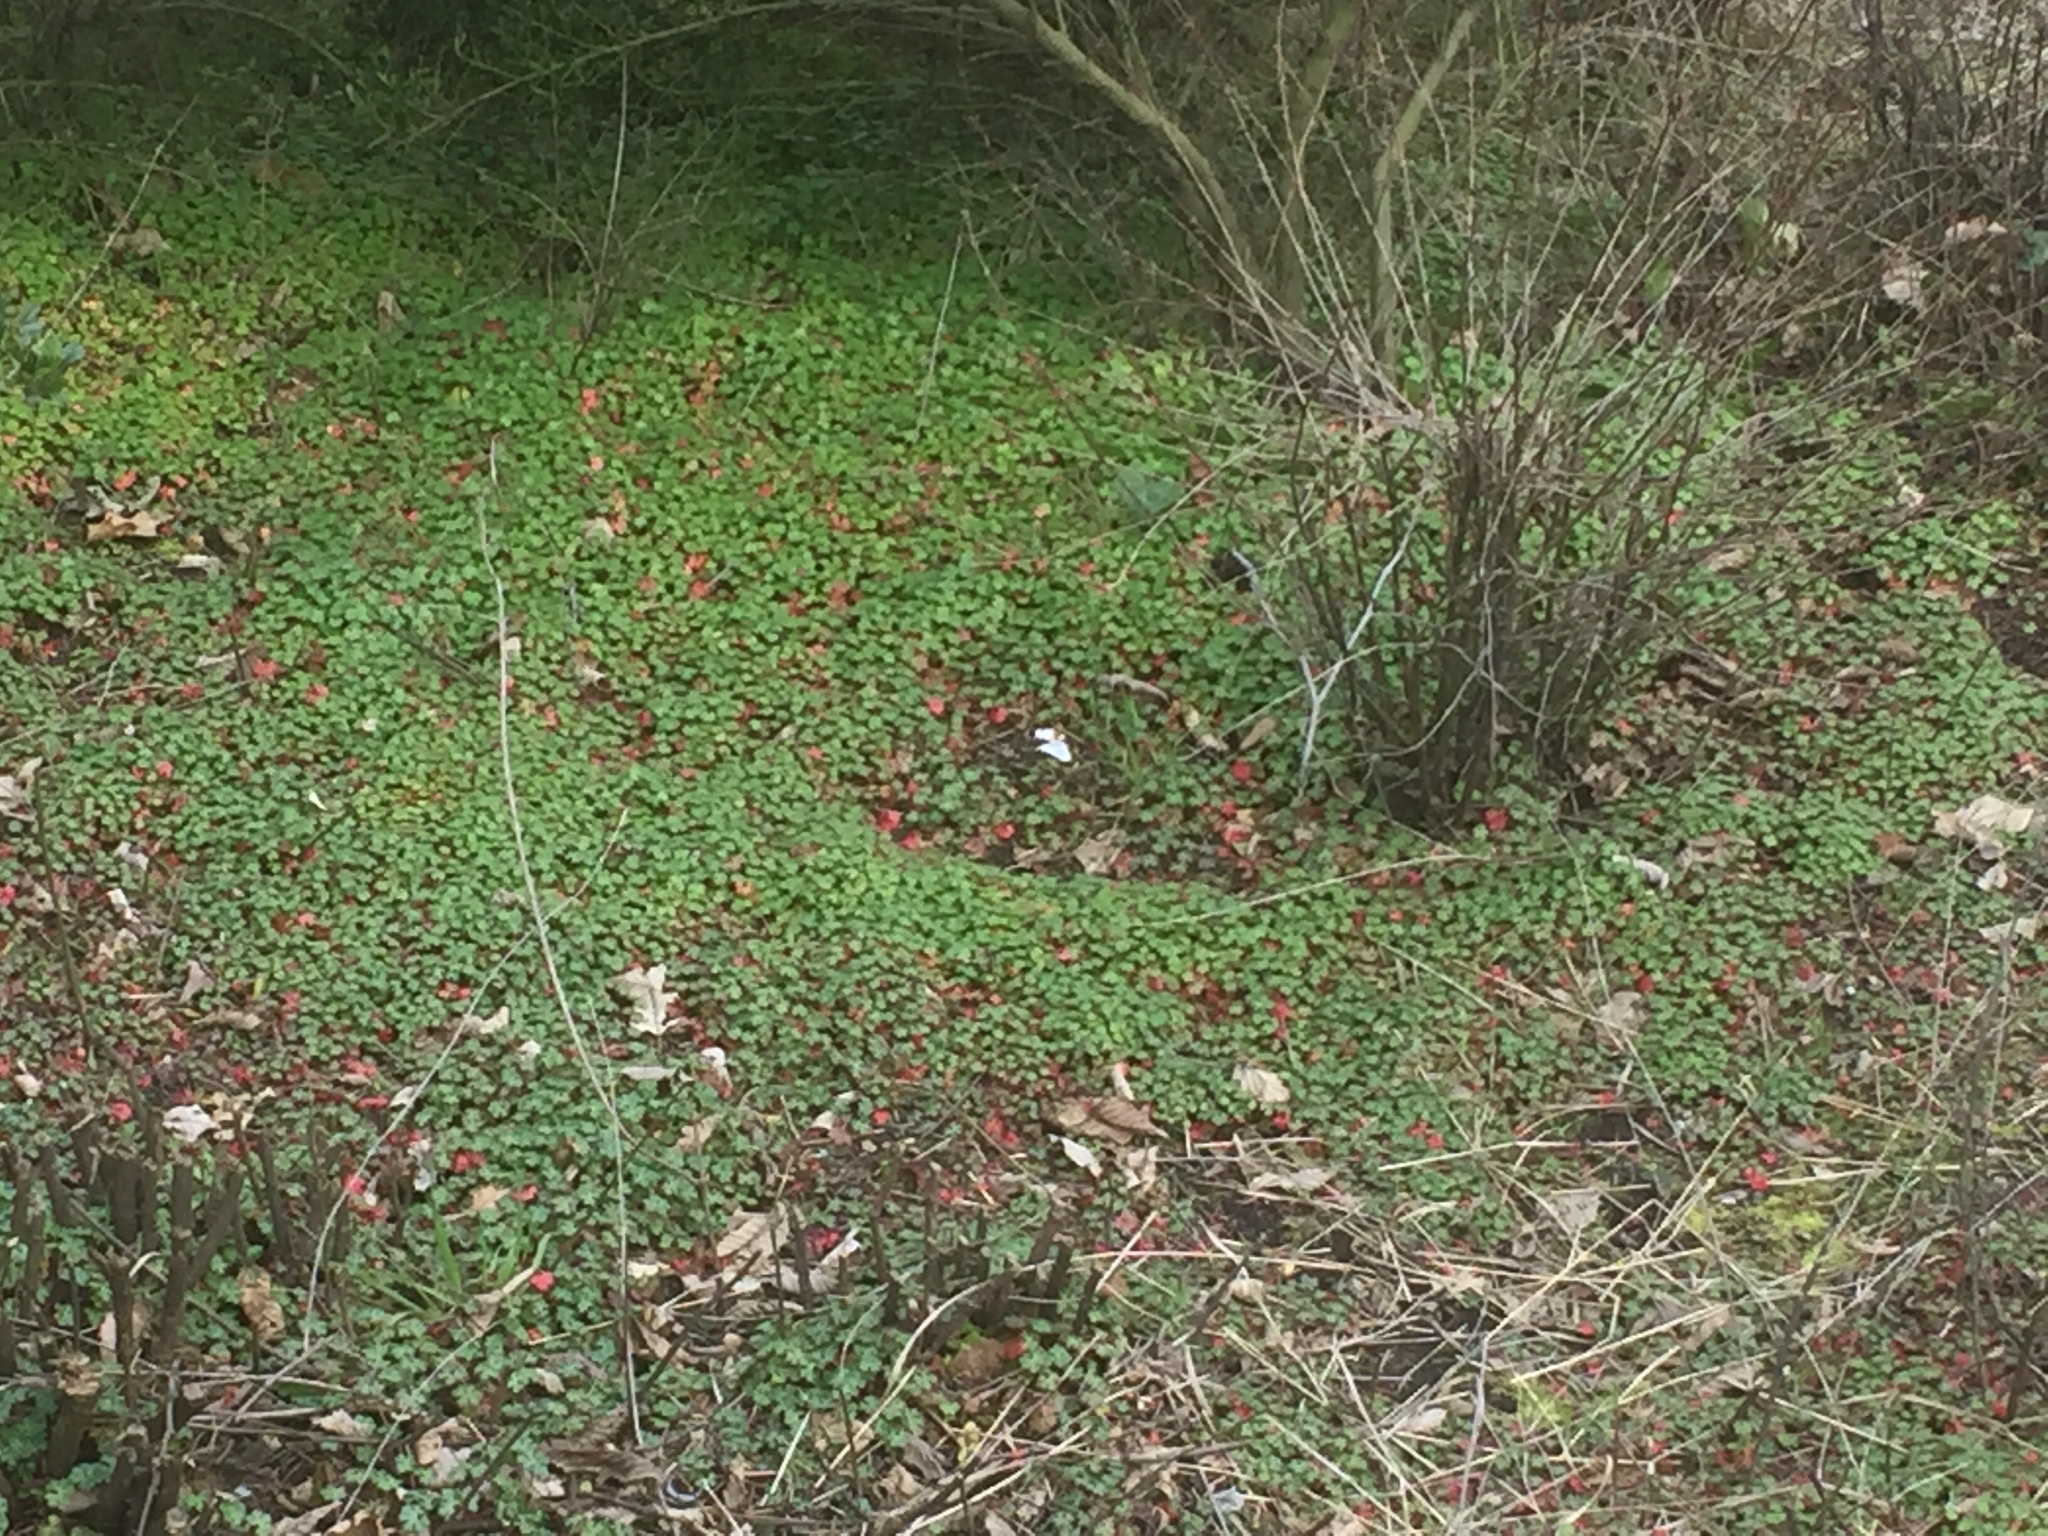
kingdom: Plantae
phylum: Tracheophyta
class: Magnoliopsida
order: Geraniales
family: Geraniaceae
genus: Geranium
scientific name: Geranium lucidum
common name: Shining crane's-bill
